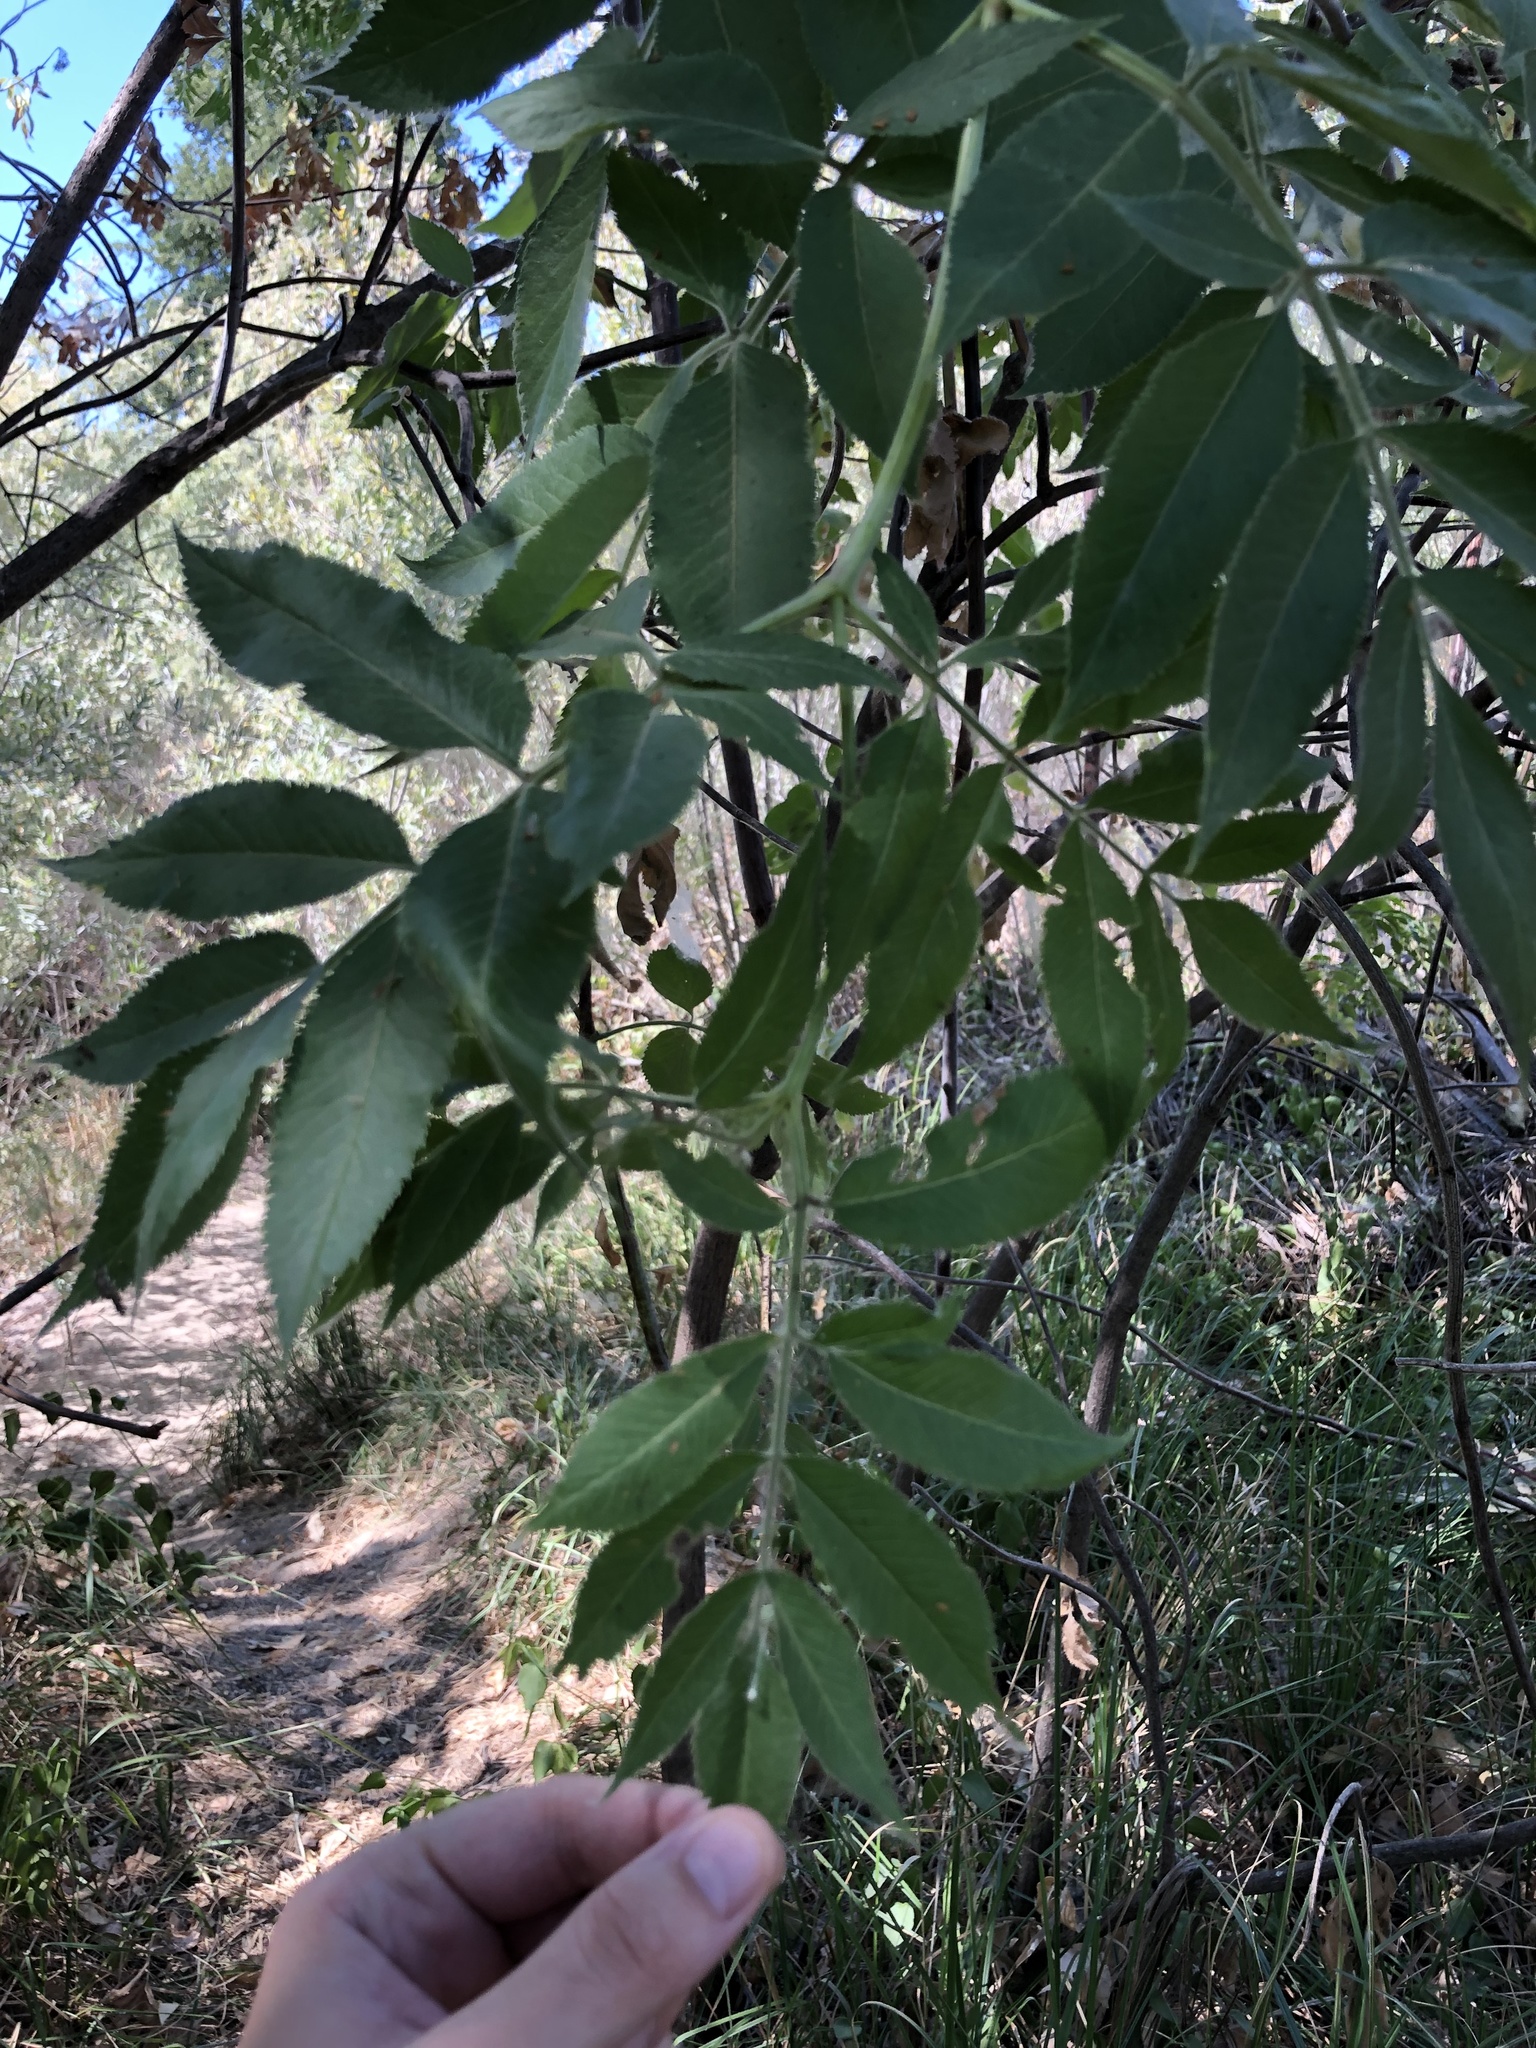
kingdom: Plantae
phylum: Tracheophyta
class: Magnoliopsida
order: Dipsacales
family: Viburnaceae
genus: Sambucus
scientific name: Sambucus cerulea
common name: Blue elder
